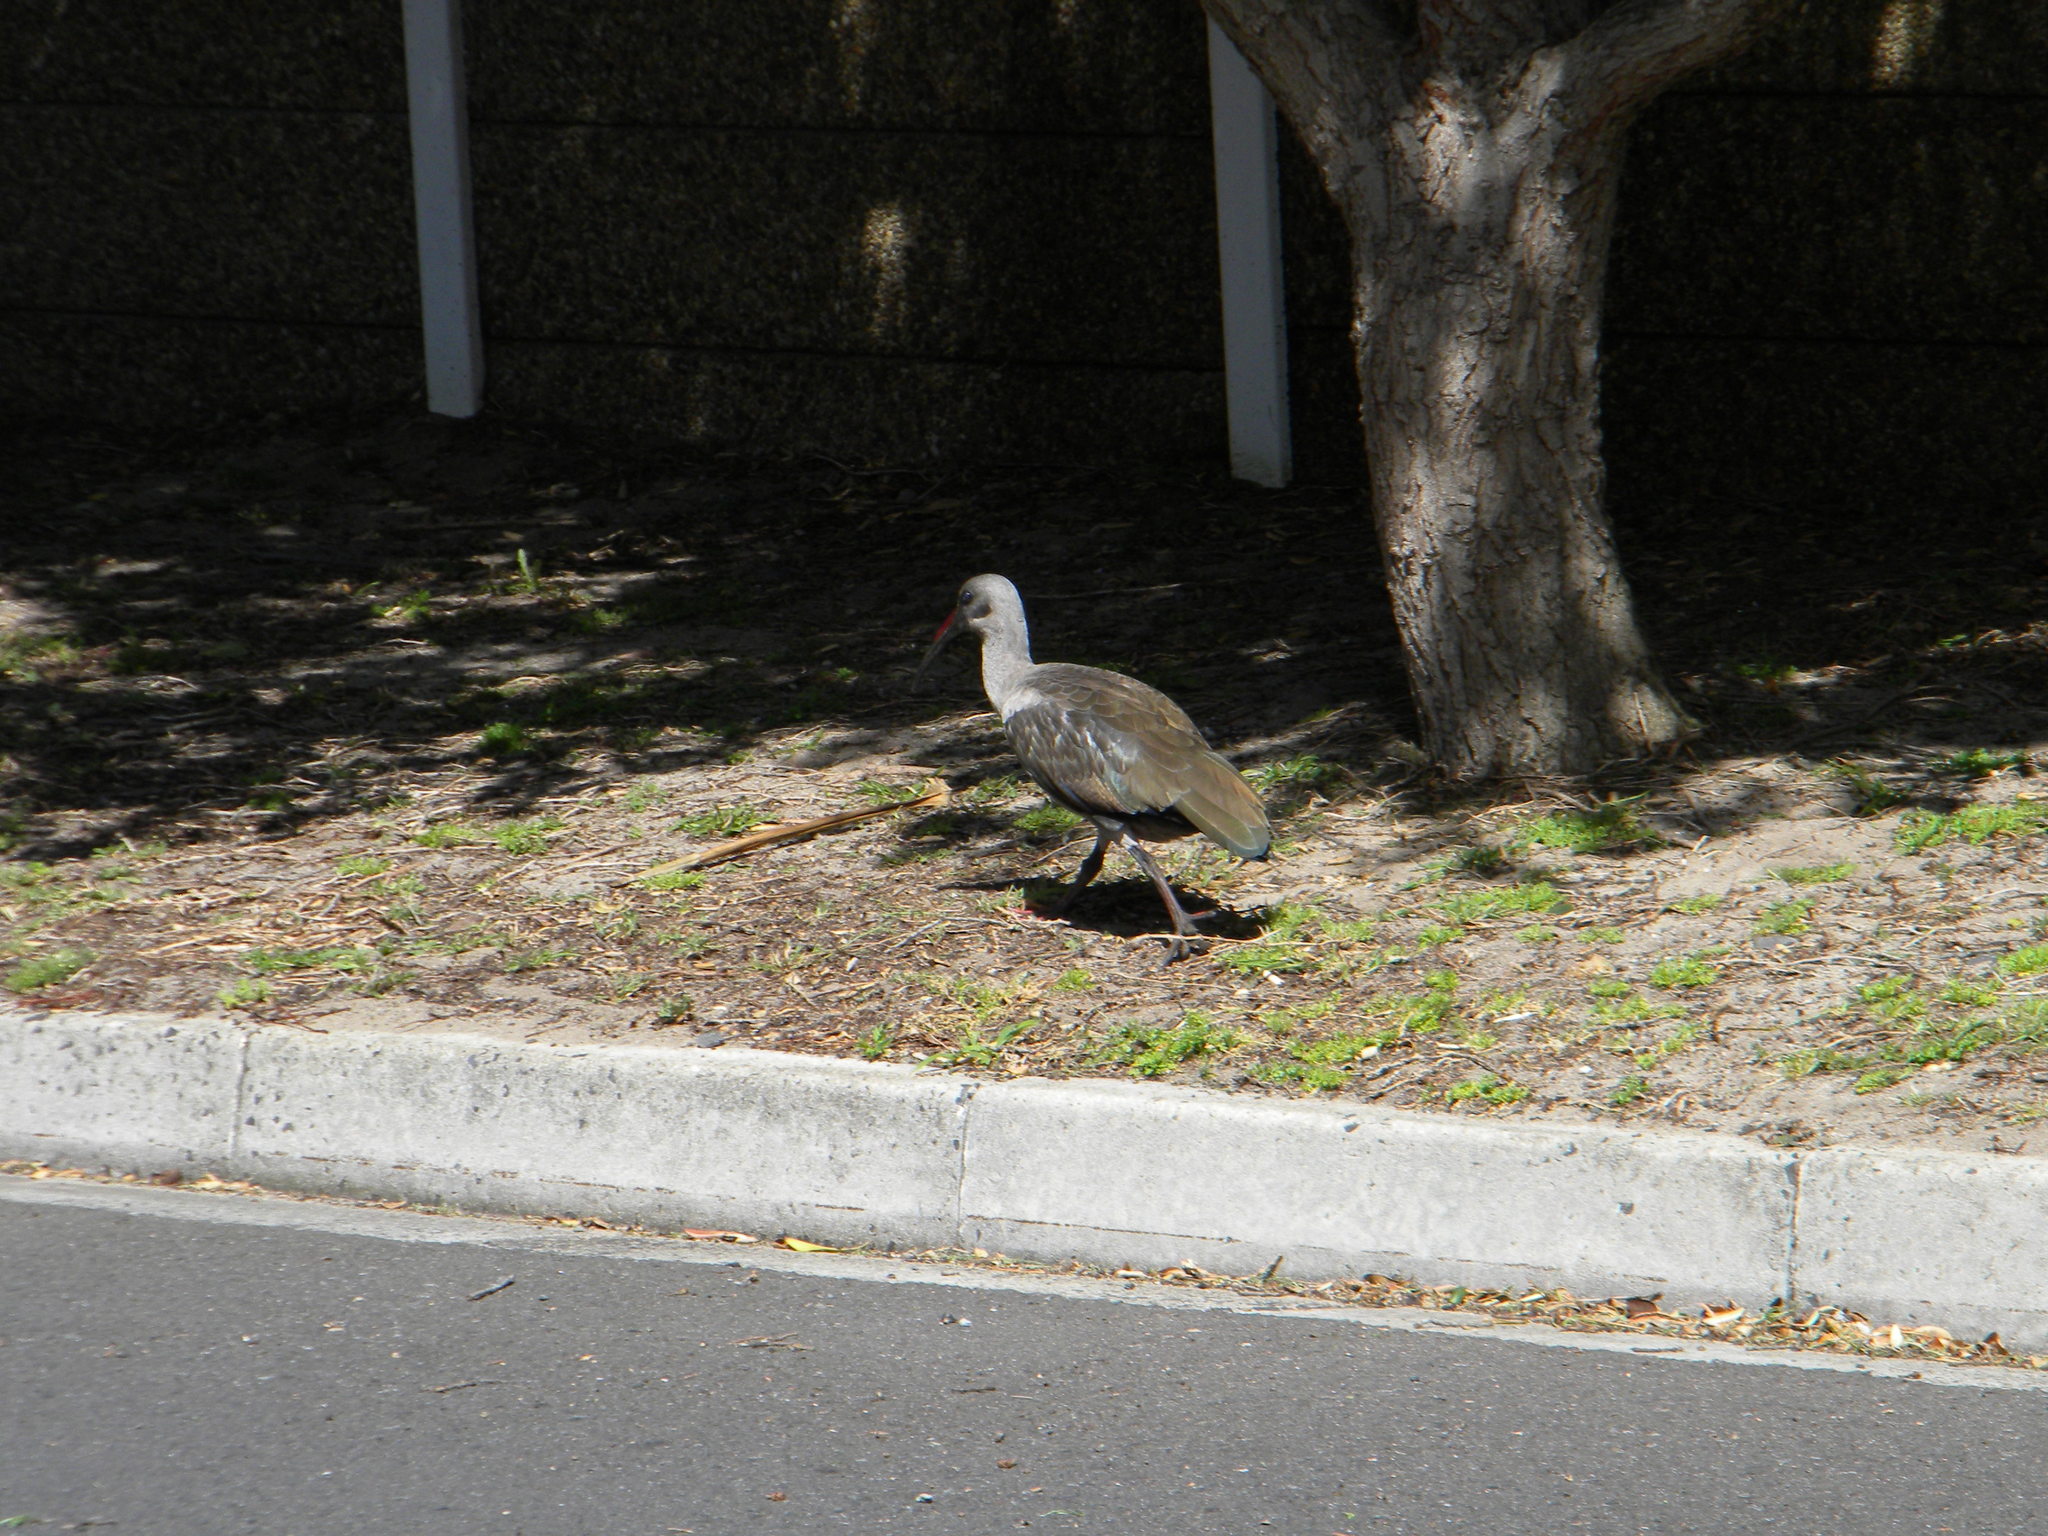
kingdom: Animalia
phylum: Chordata
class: Aves
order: Pelecaniformes
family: Threskiornithidae
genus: Bostrychia
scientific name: Bostrychia hagedash
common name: Hadada ibis
